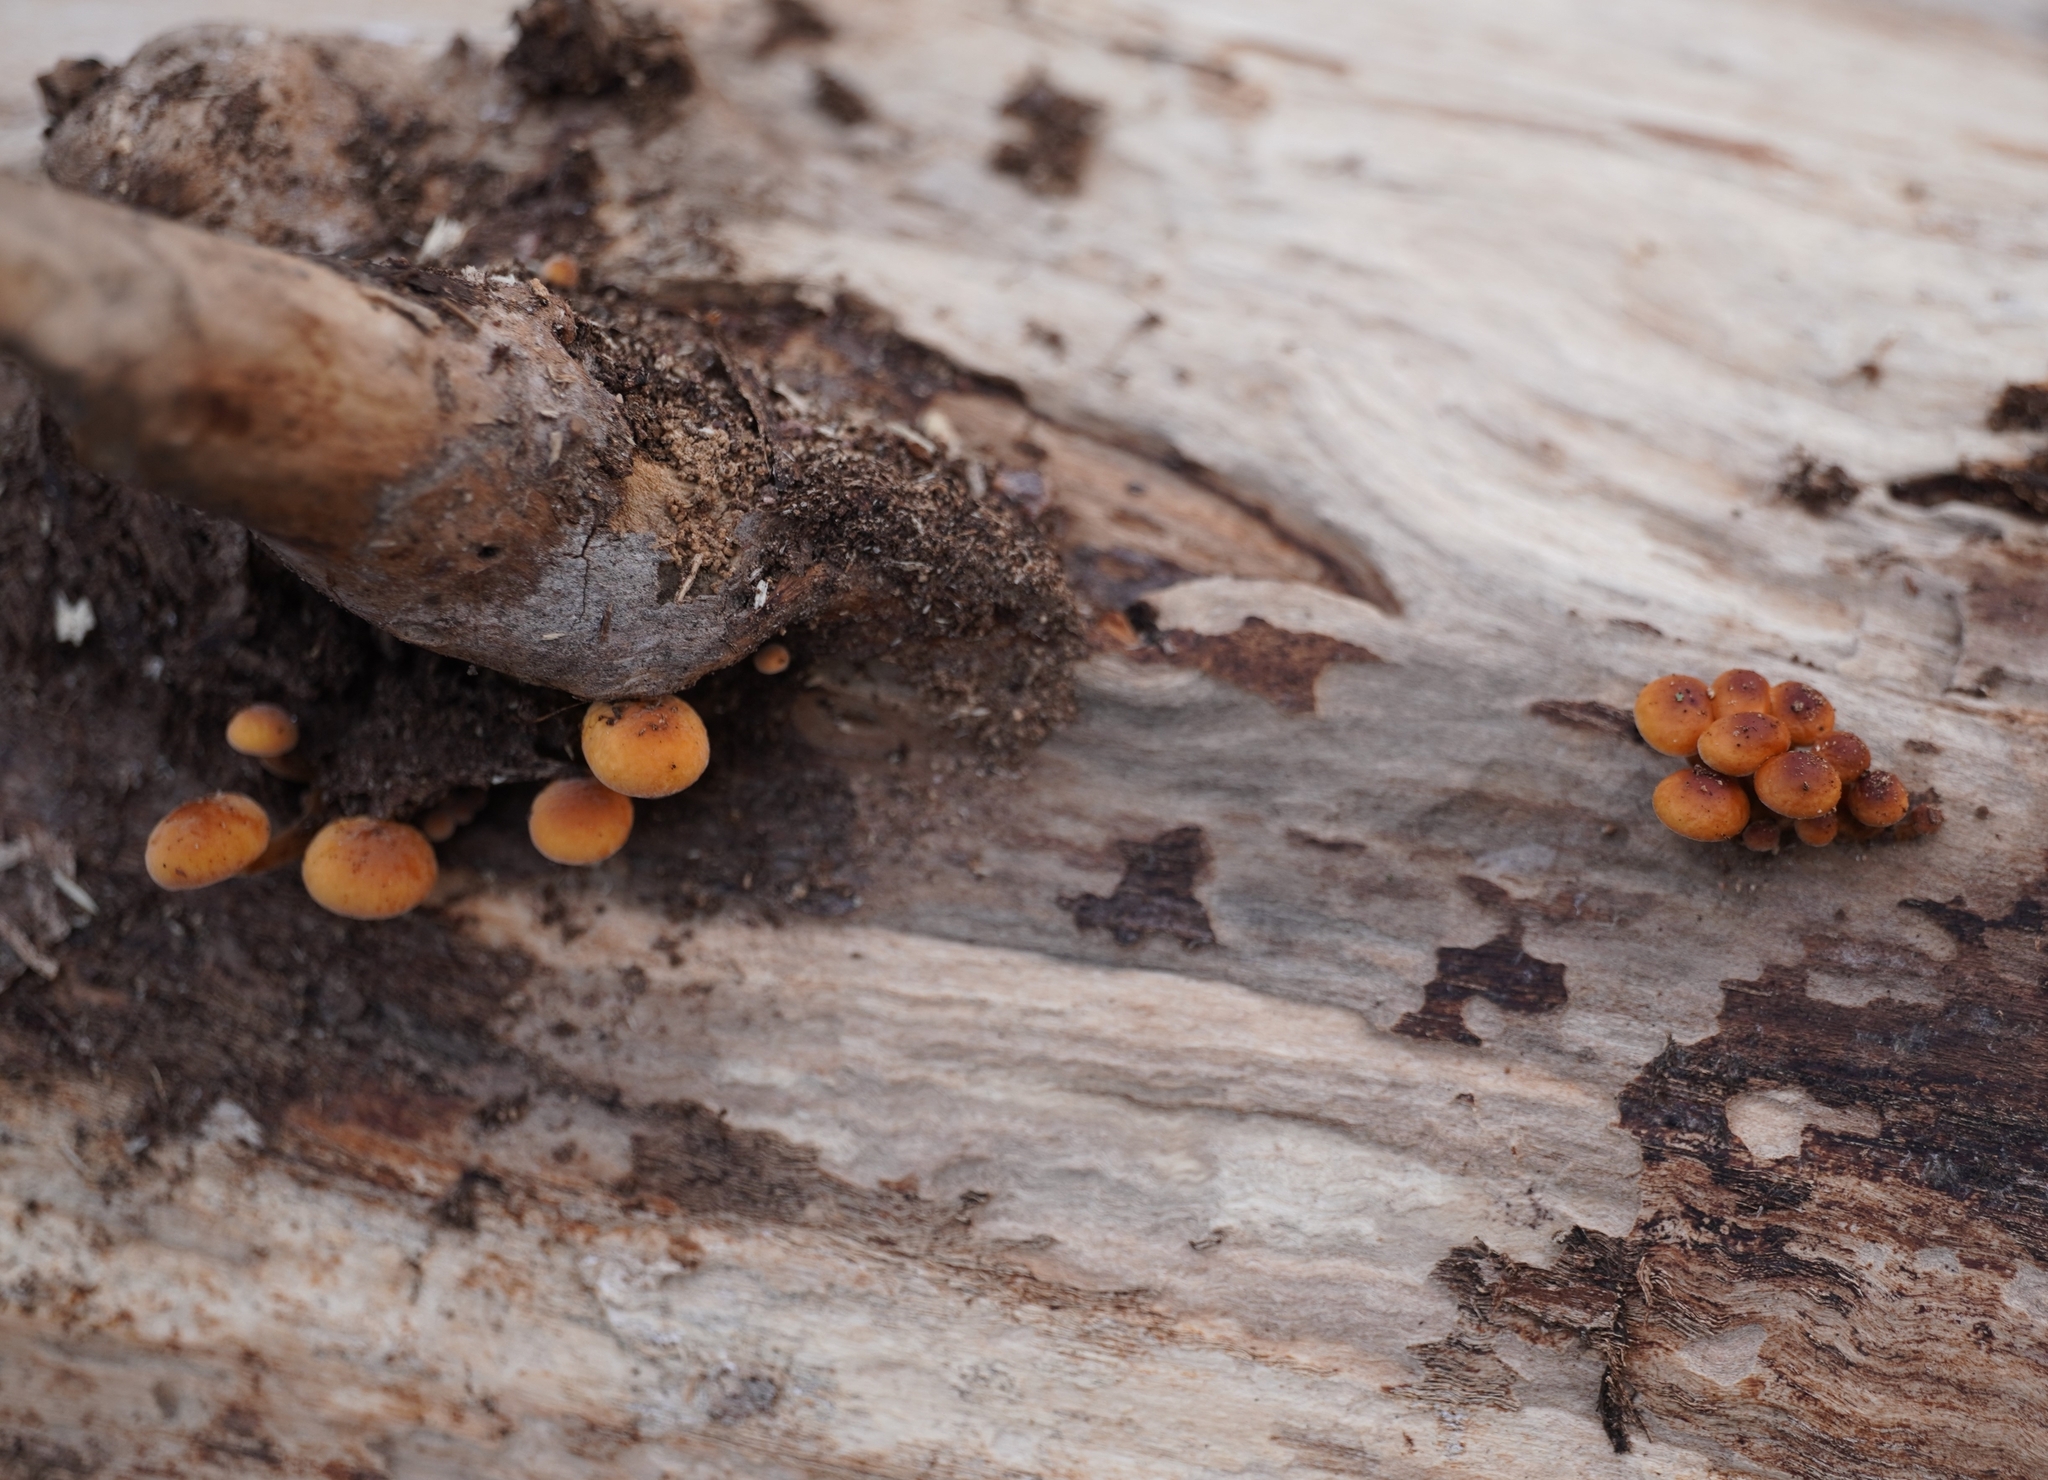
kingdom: Fungi
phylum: Basidiomycota
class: Agaricomycetes
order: Agaricales
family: Physalacriaceae
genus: Flammulina
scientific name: Flammulina
